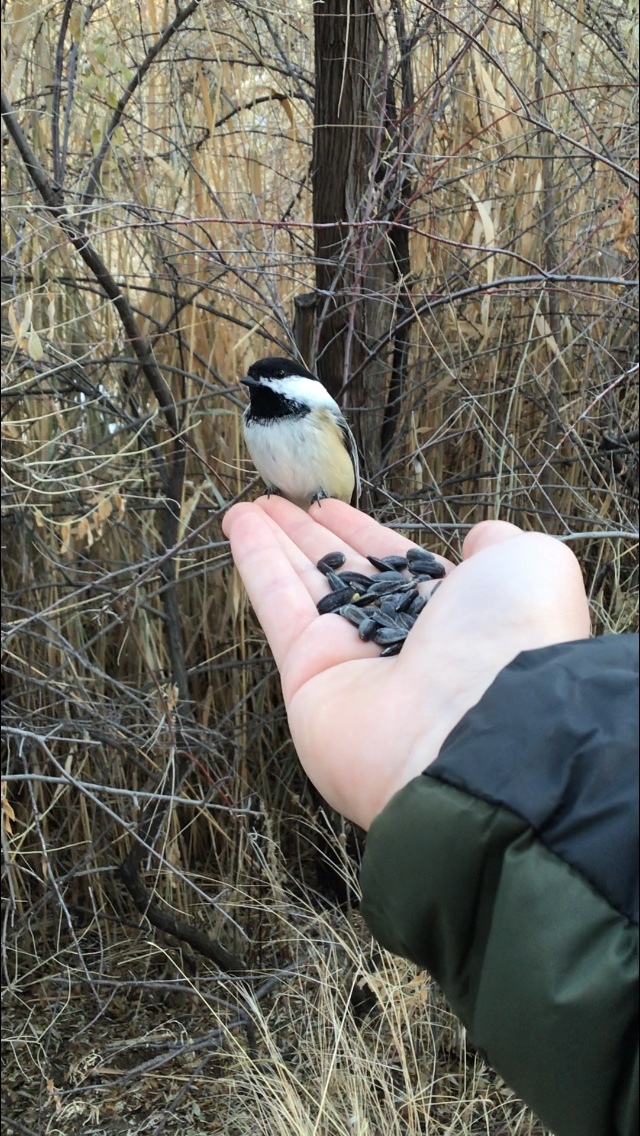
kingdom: Animalia
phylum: Chordata
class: Aves
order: Passeriformes
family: Paridae
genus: Poecile
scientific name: Poecile atricapillus
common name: Black-capped chickadee
